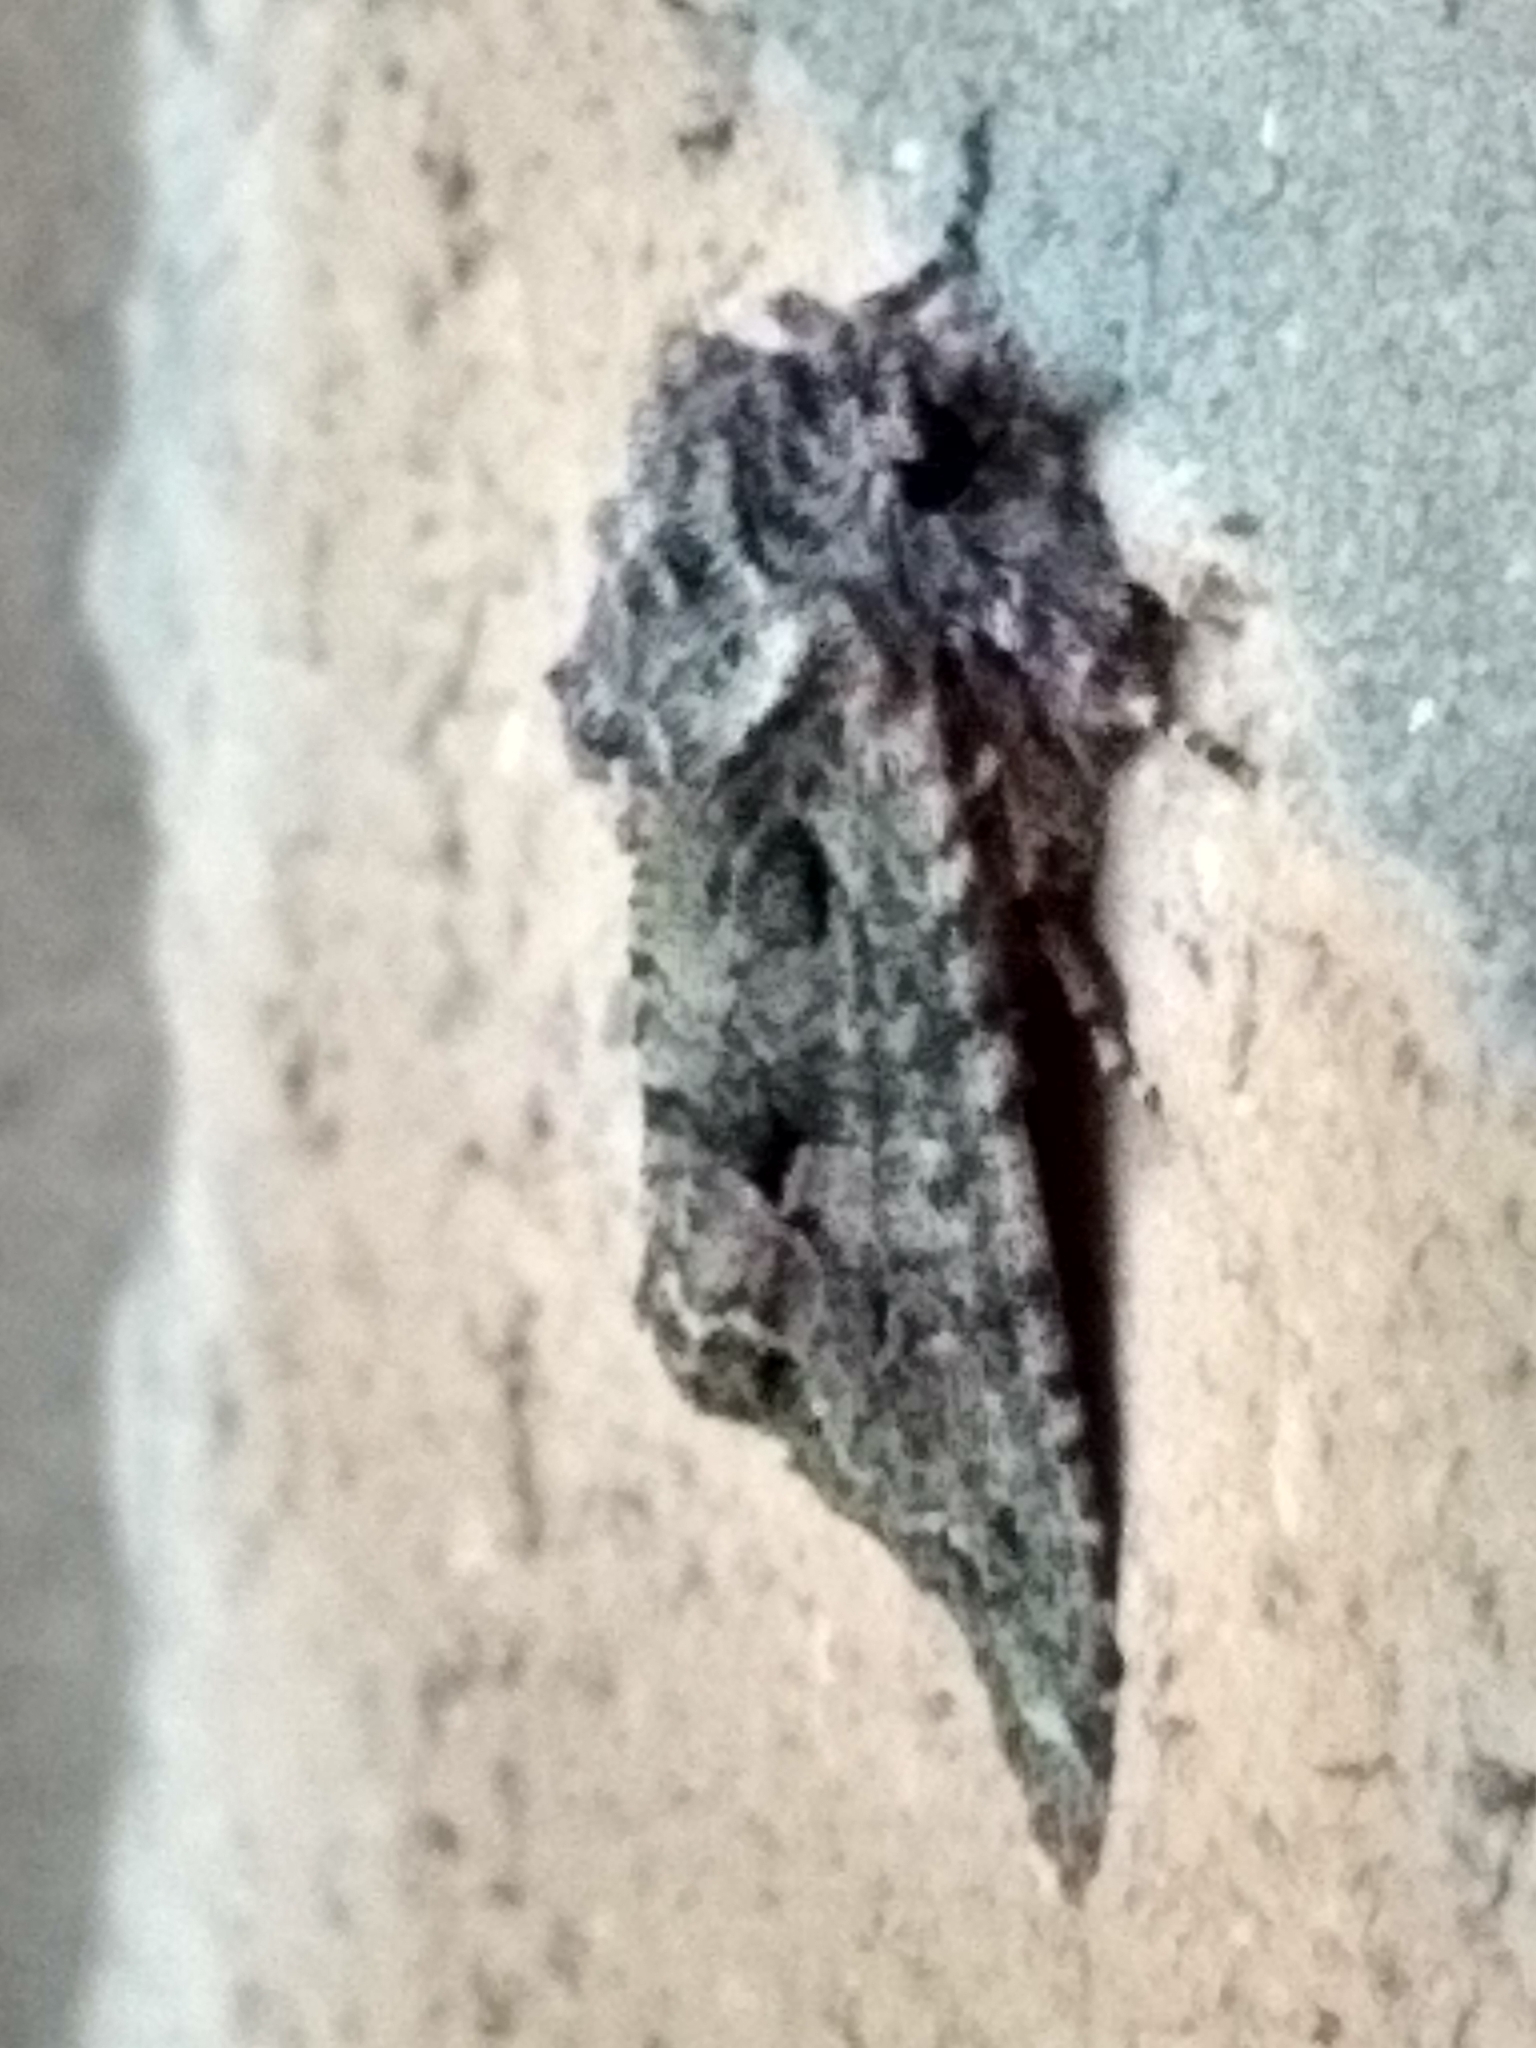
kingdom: Animalia
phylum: Arthropoda
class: Insecta
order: Lepidoptera
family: Noctuidae
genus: Dryobotodes
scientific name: Dryobotodes eremita
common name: Brindled green
